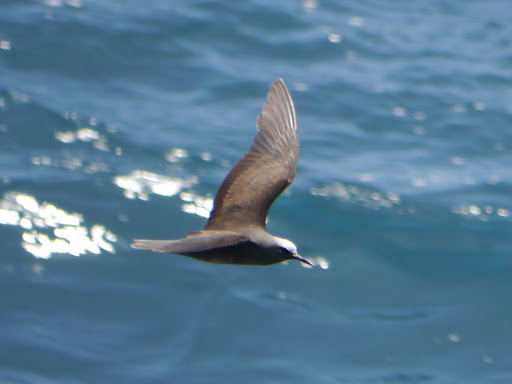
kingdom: Animalia
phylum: Chordata
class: Aves
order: Charadriiformes
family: Laridae
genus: Anous
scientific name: Anous minutus
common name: Black noddy
